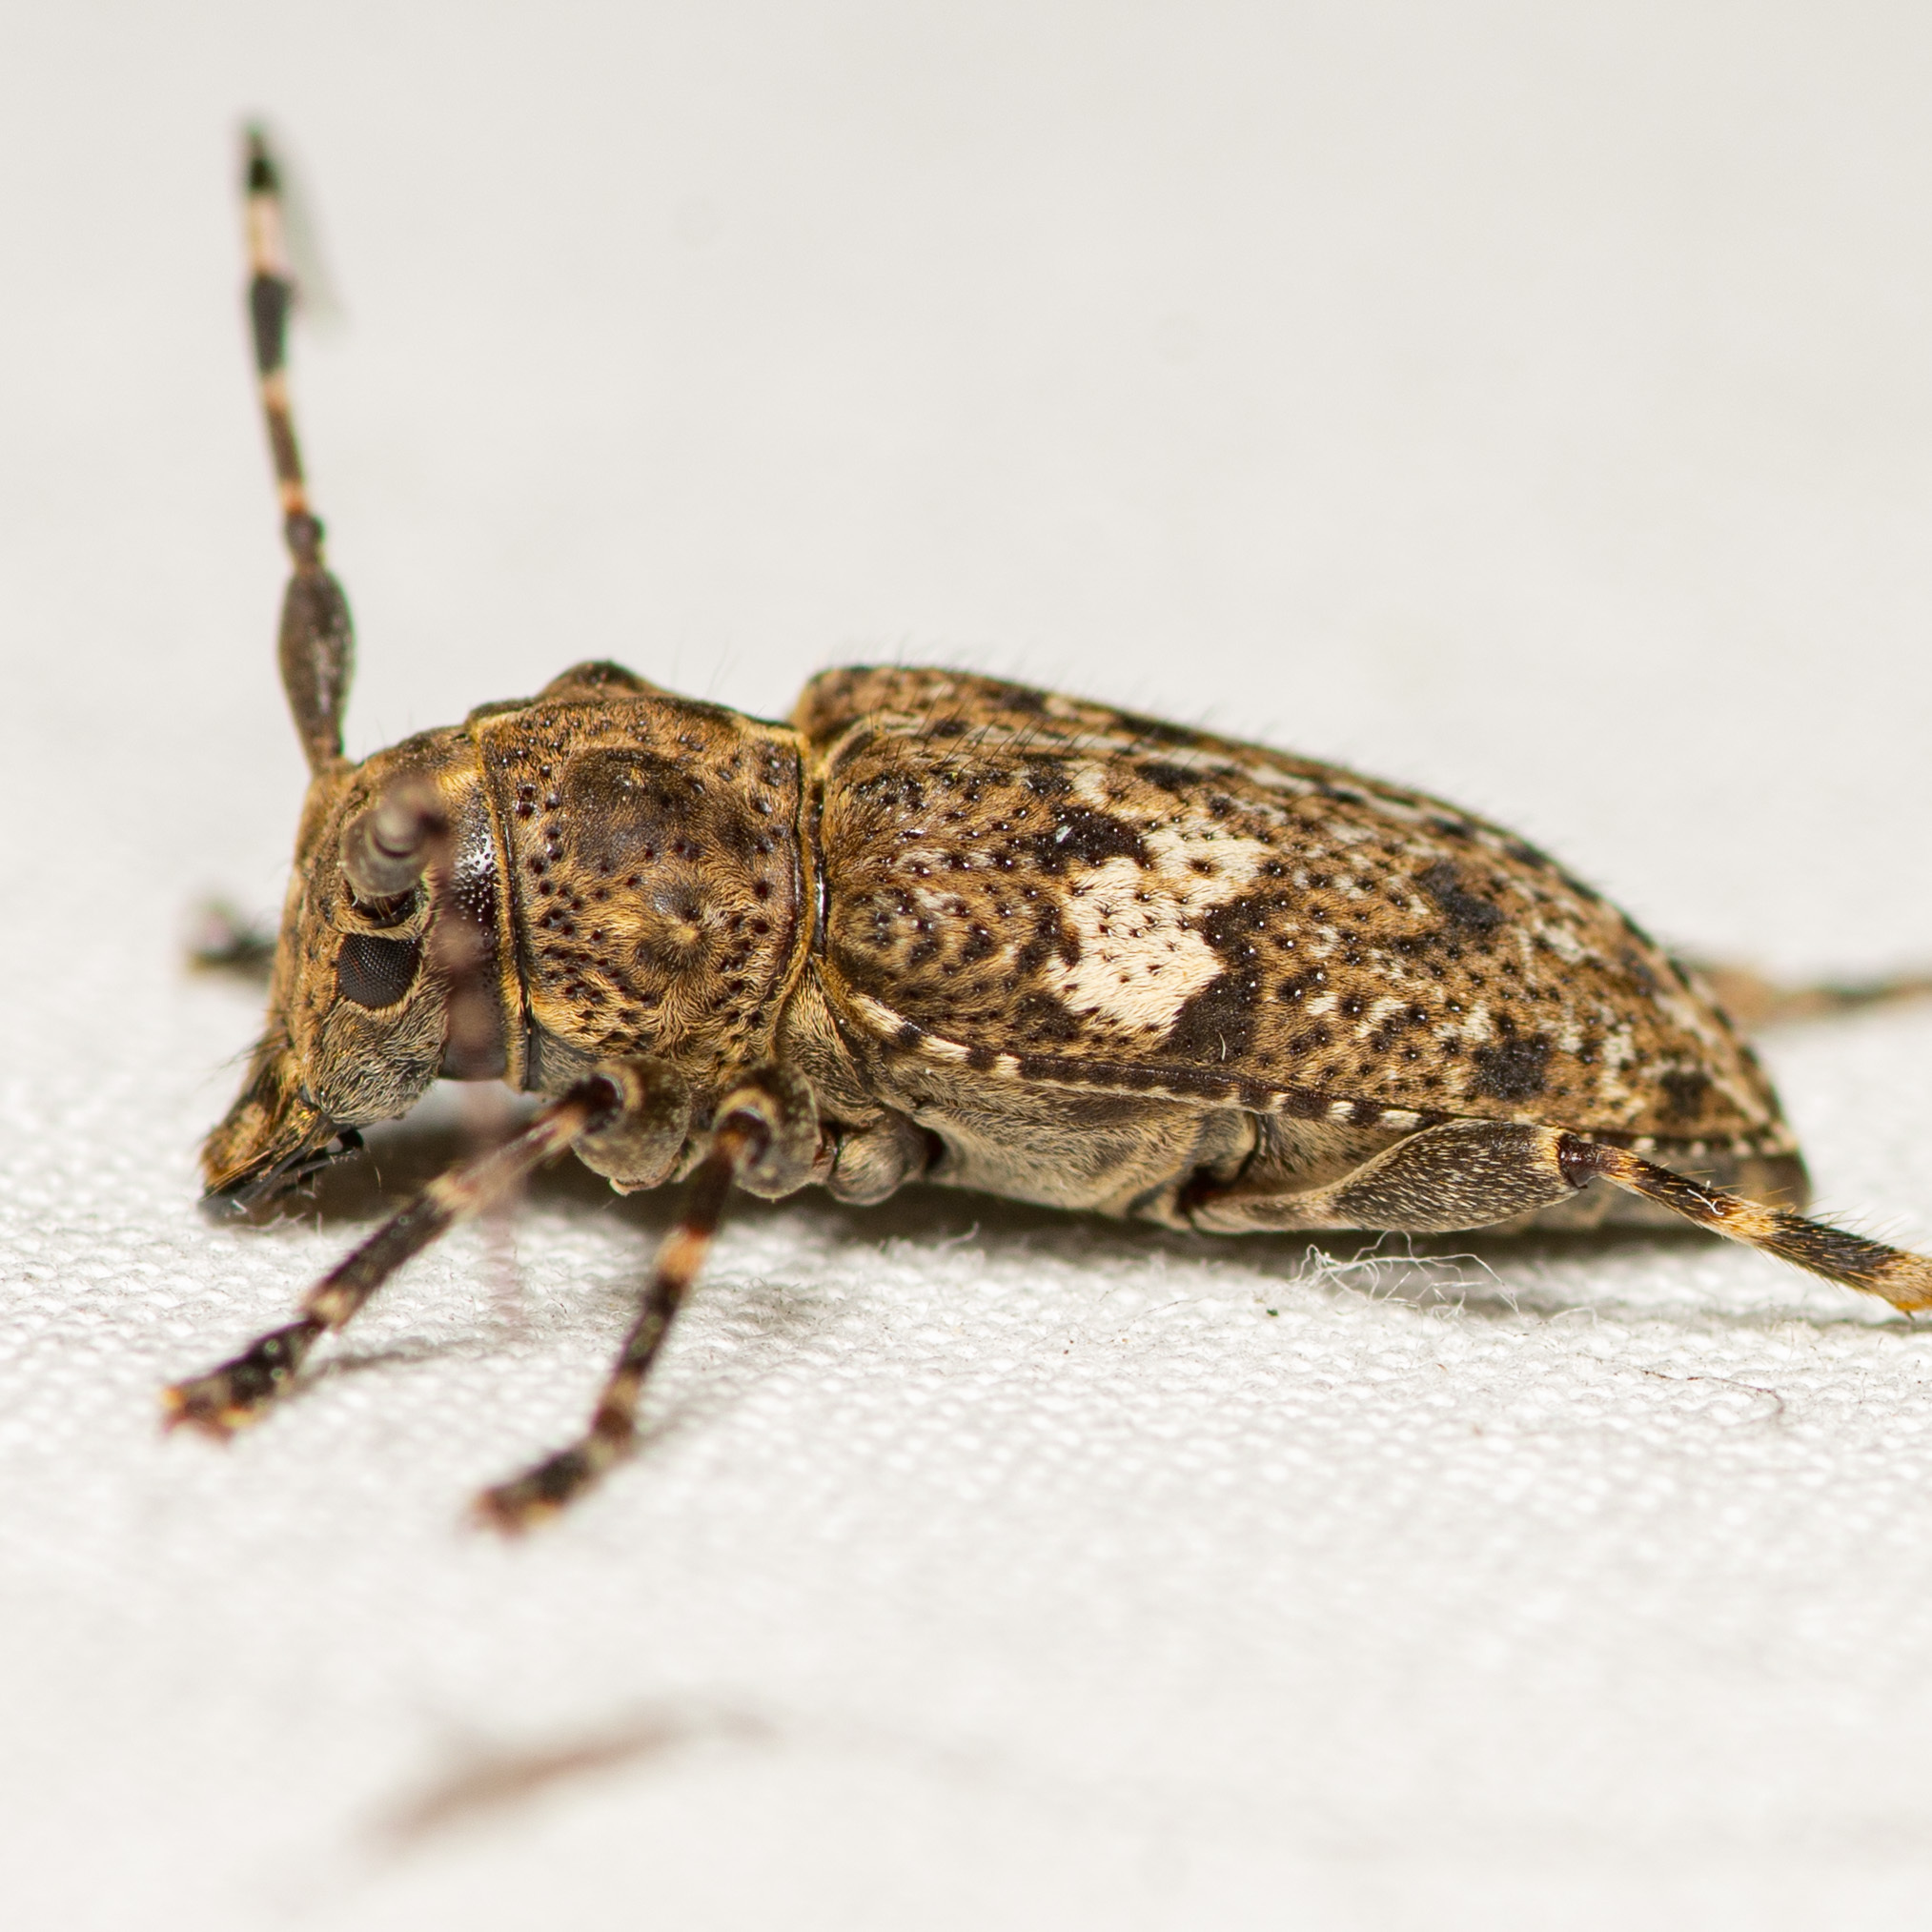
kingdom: Animalia
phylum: Arthropoda
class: Insecta
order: Coleoptera
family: Cerambycidae
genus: Acanthoderes
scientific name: Acanthoderes quadrigibba
